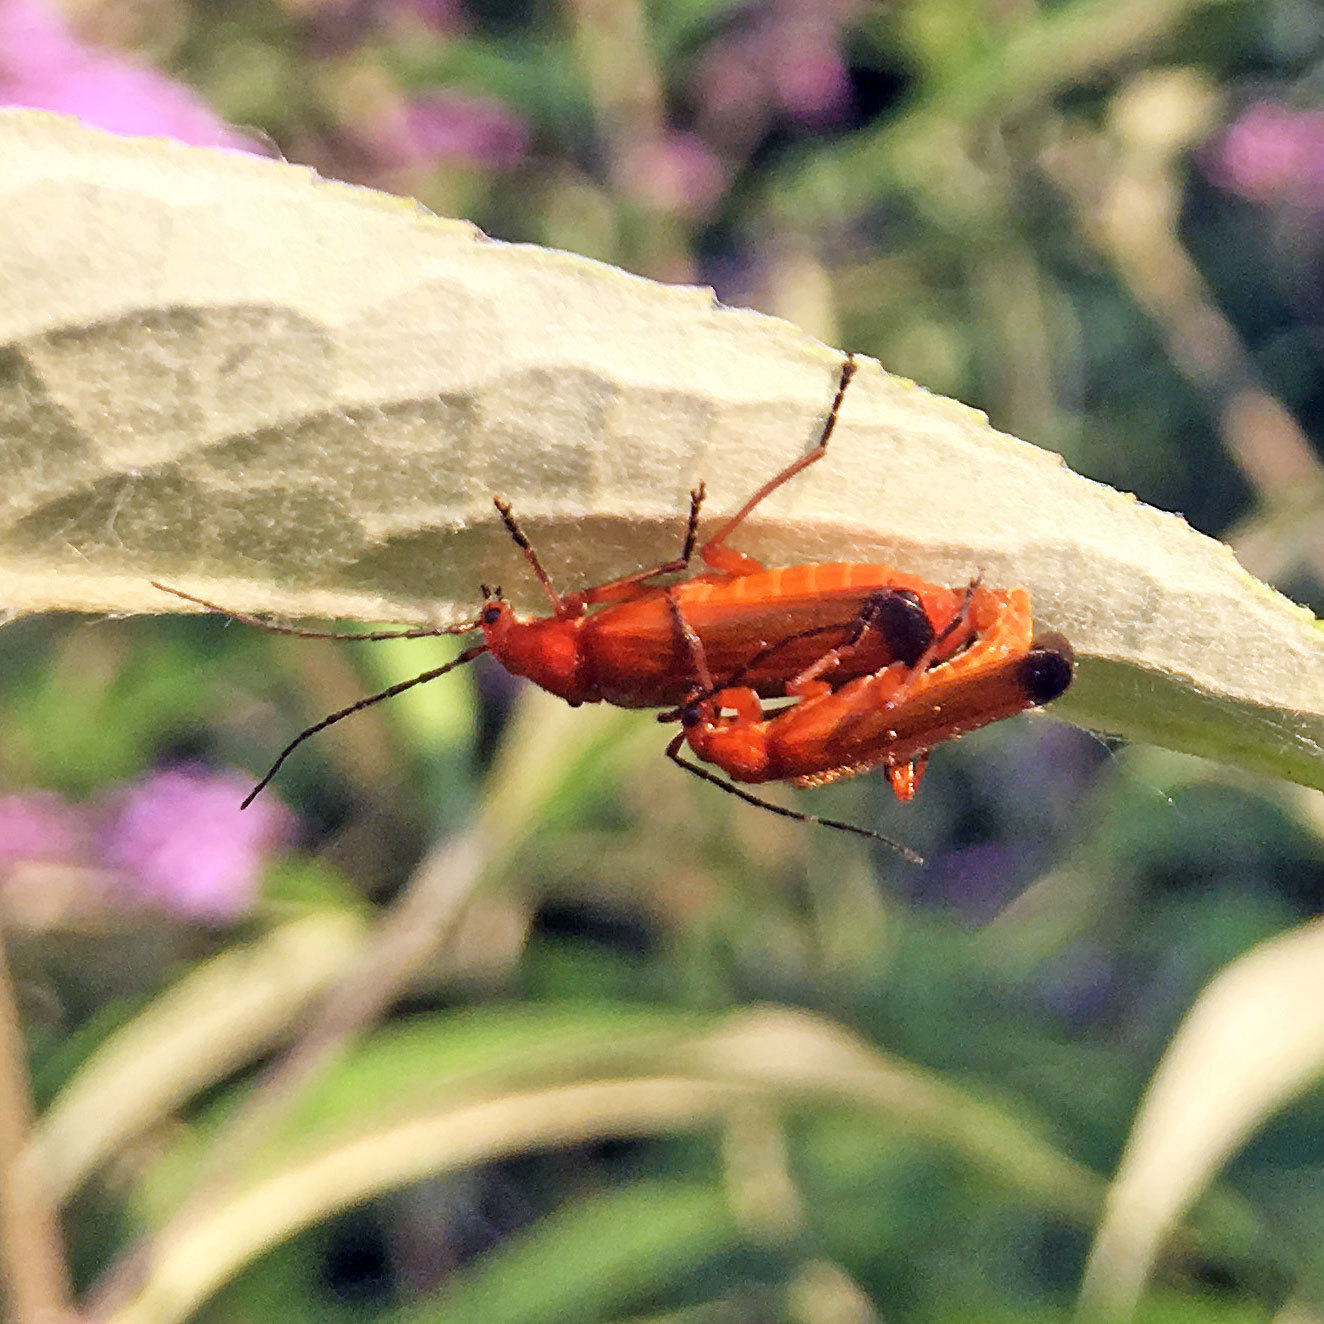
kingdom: Animalia
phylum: Arthropoda
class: Insecta
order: Coleoptera
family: Cantharidae
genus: Rhagonycha
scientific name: Rhagonycha fulva
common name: Common red soldier beetle
